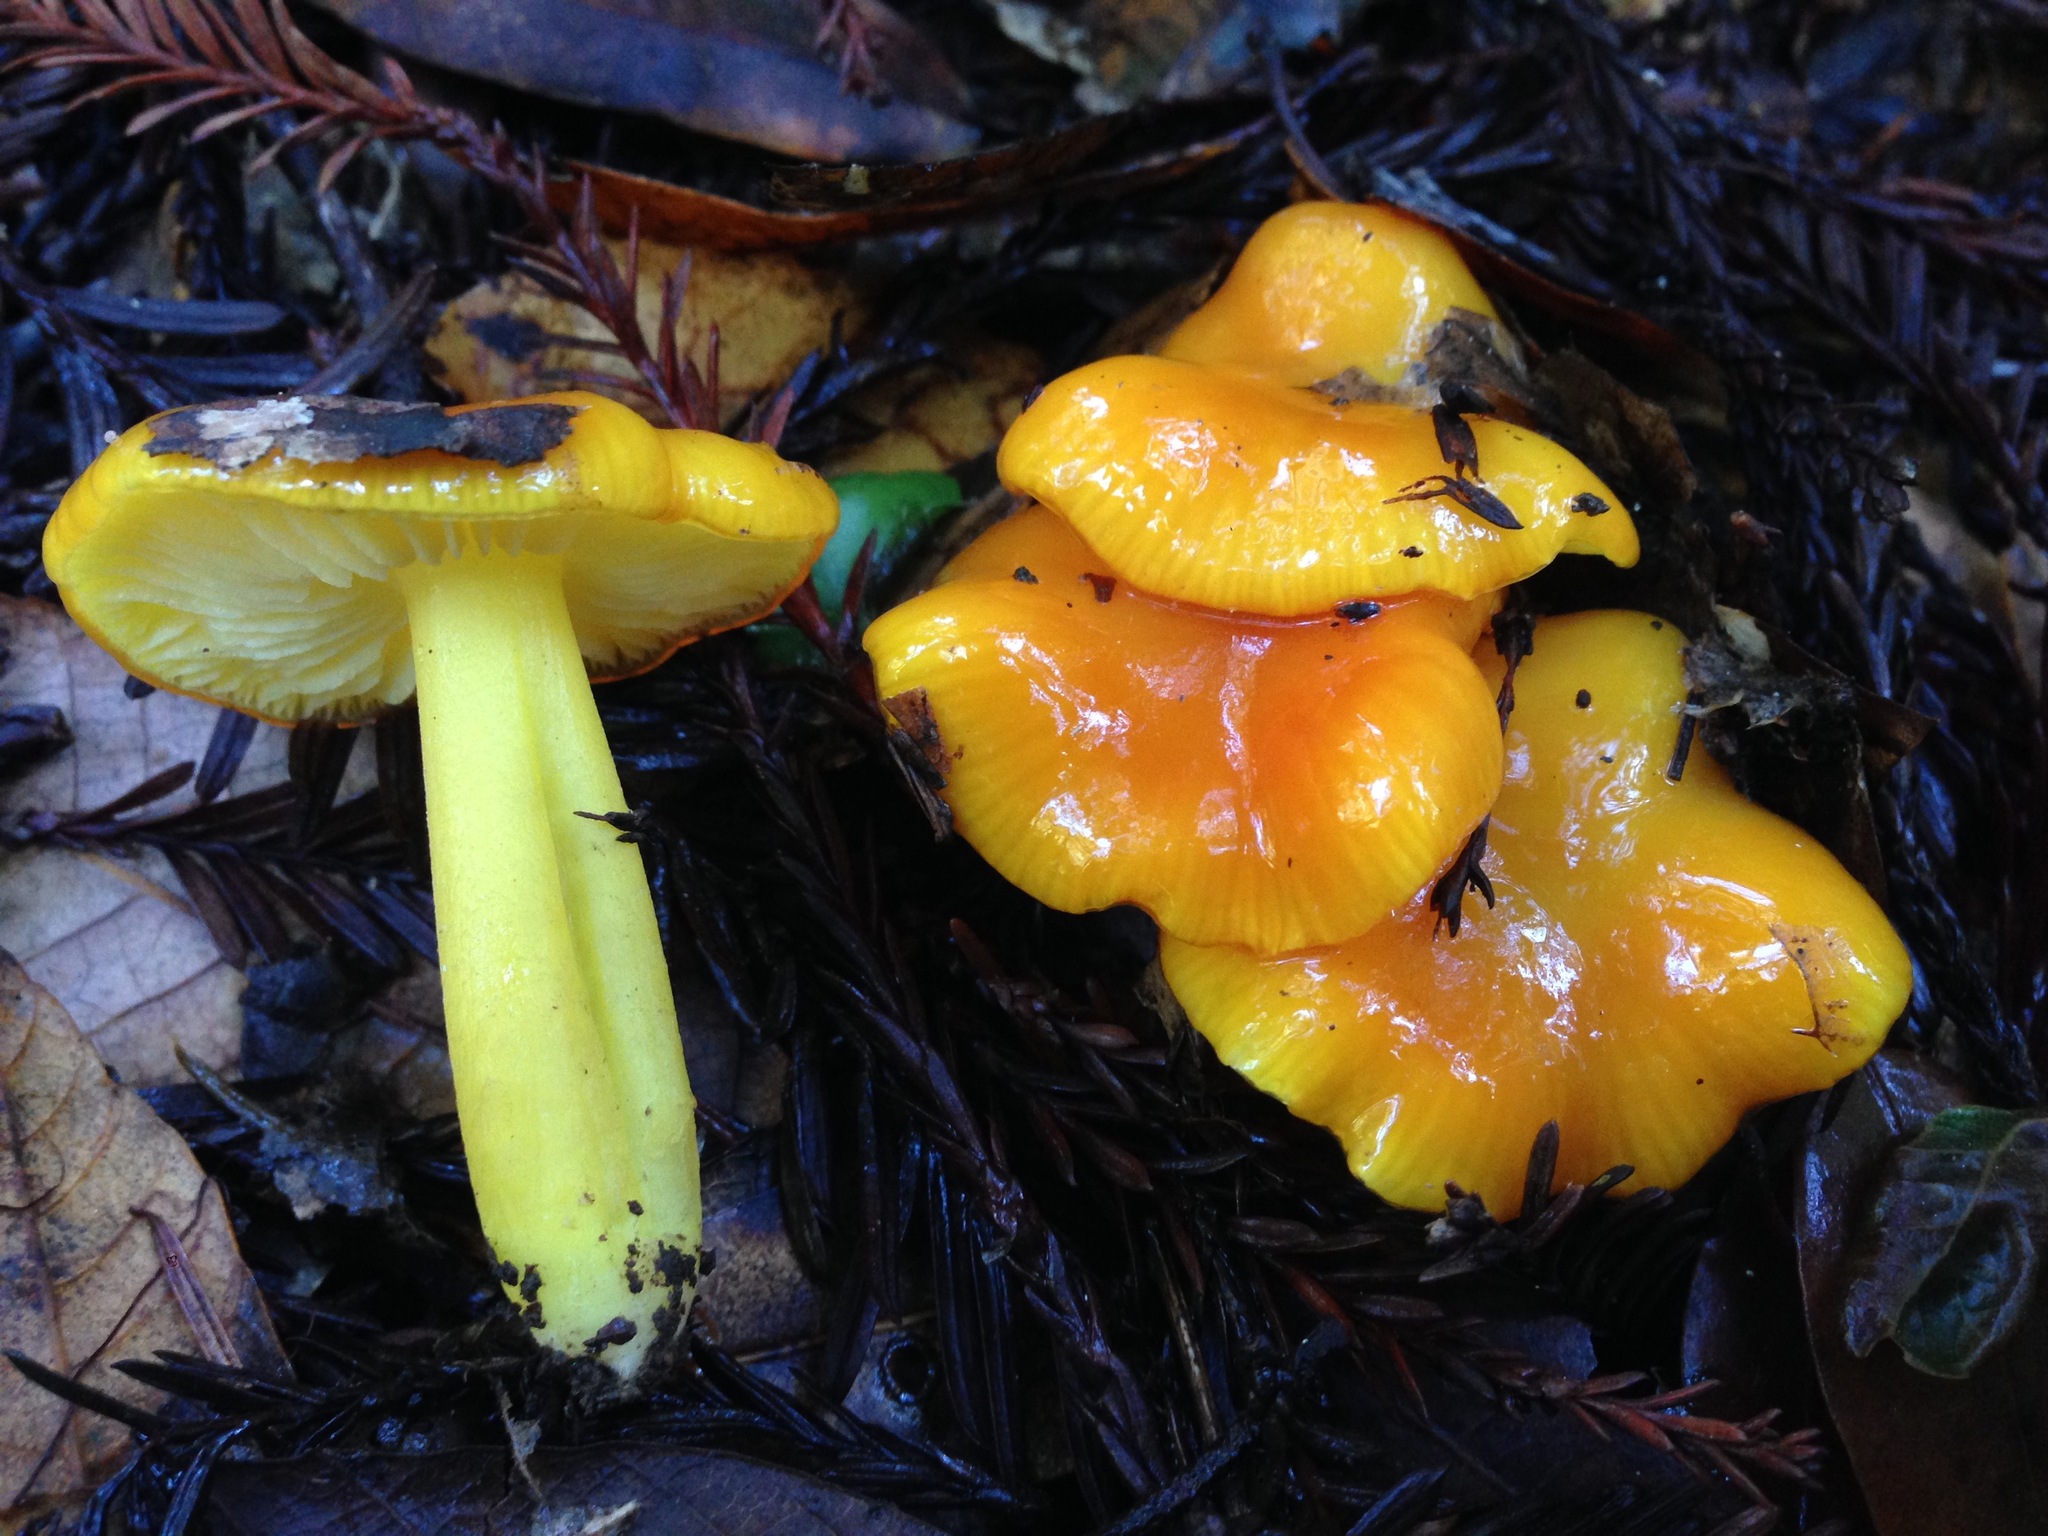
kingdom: Fungi
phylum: Basidiomycota
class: Agaricomycetes
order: Agaricales
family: Hygrophoraceae
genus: Hygrocybe
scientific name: Hygrocybe flavescens
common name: Golden waxy cap
